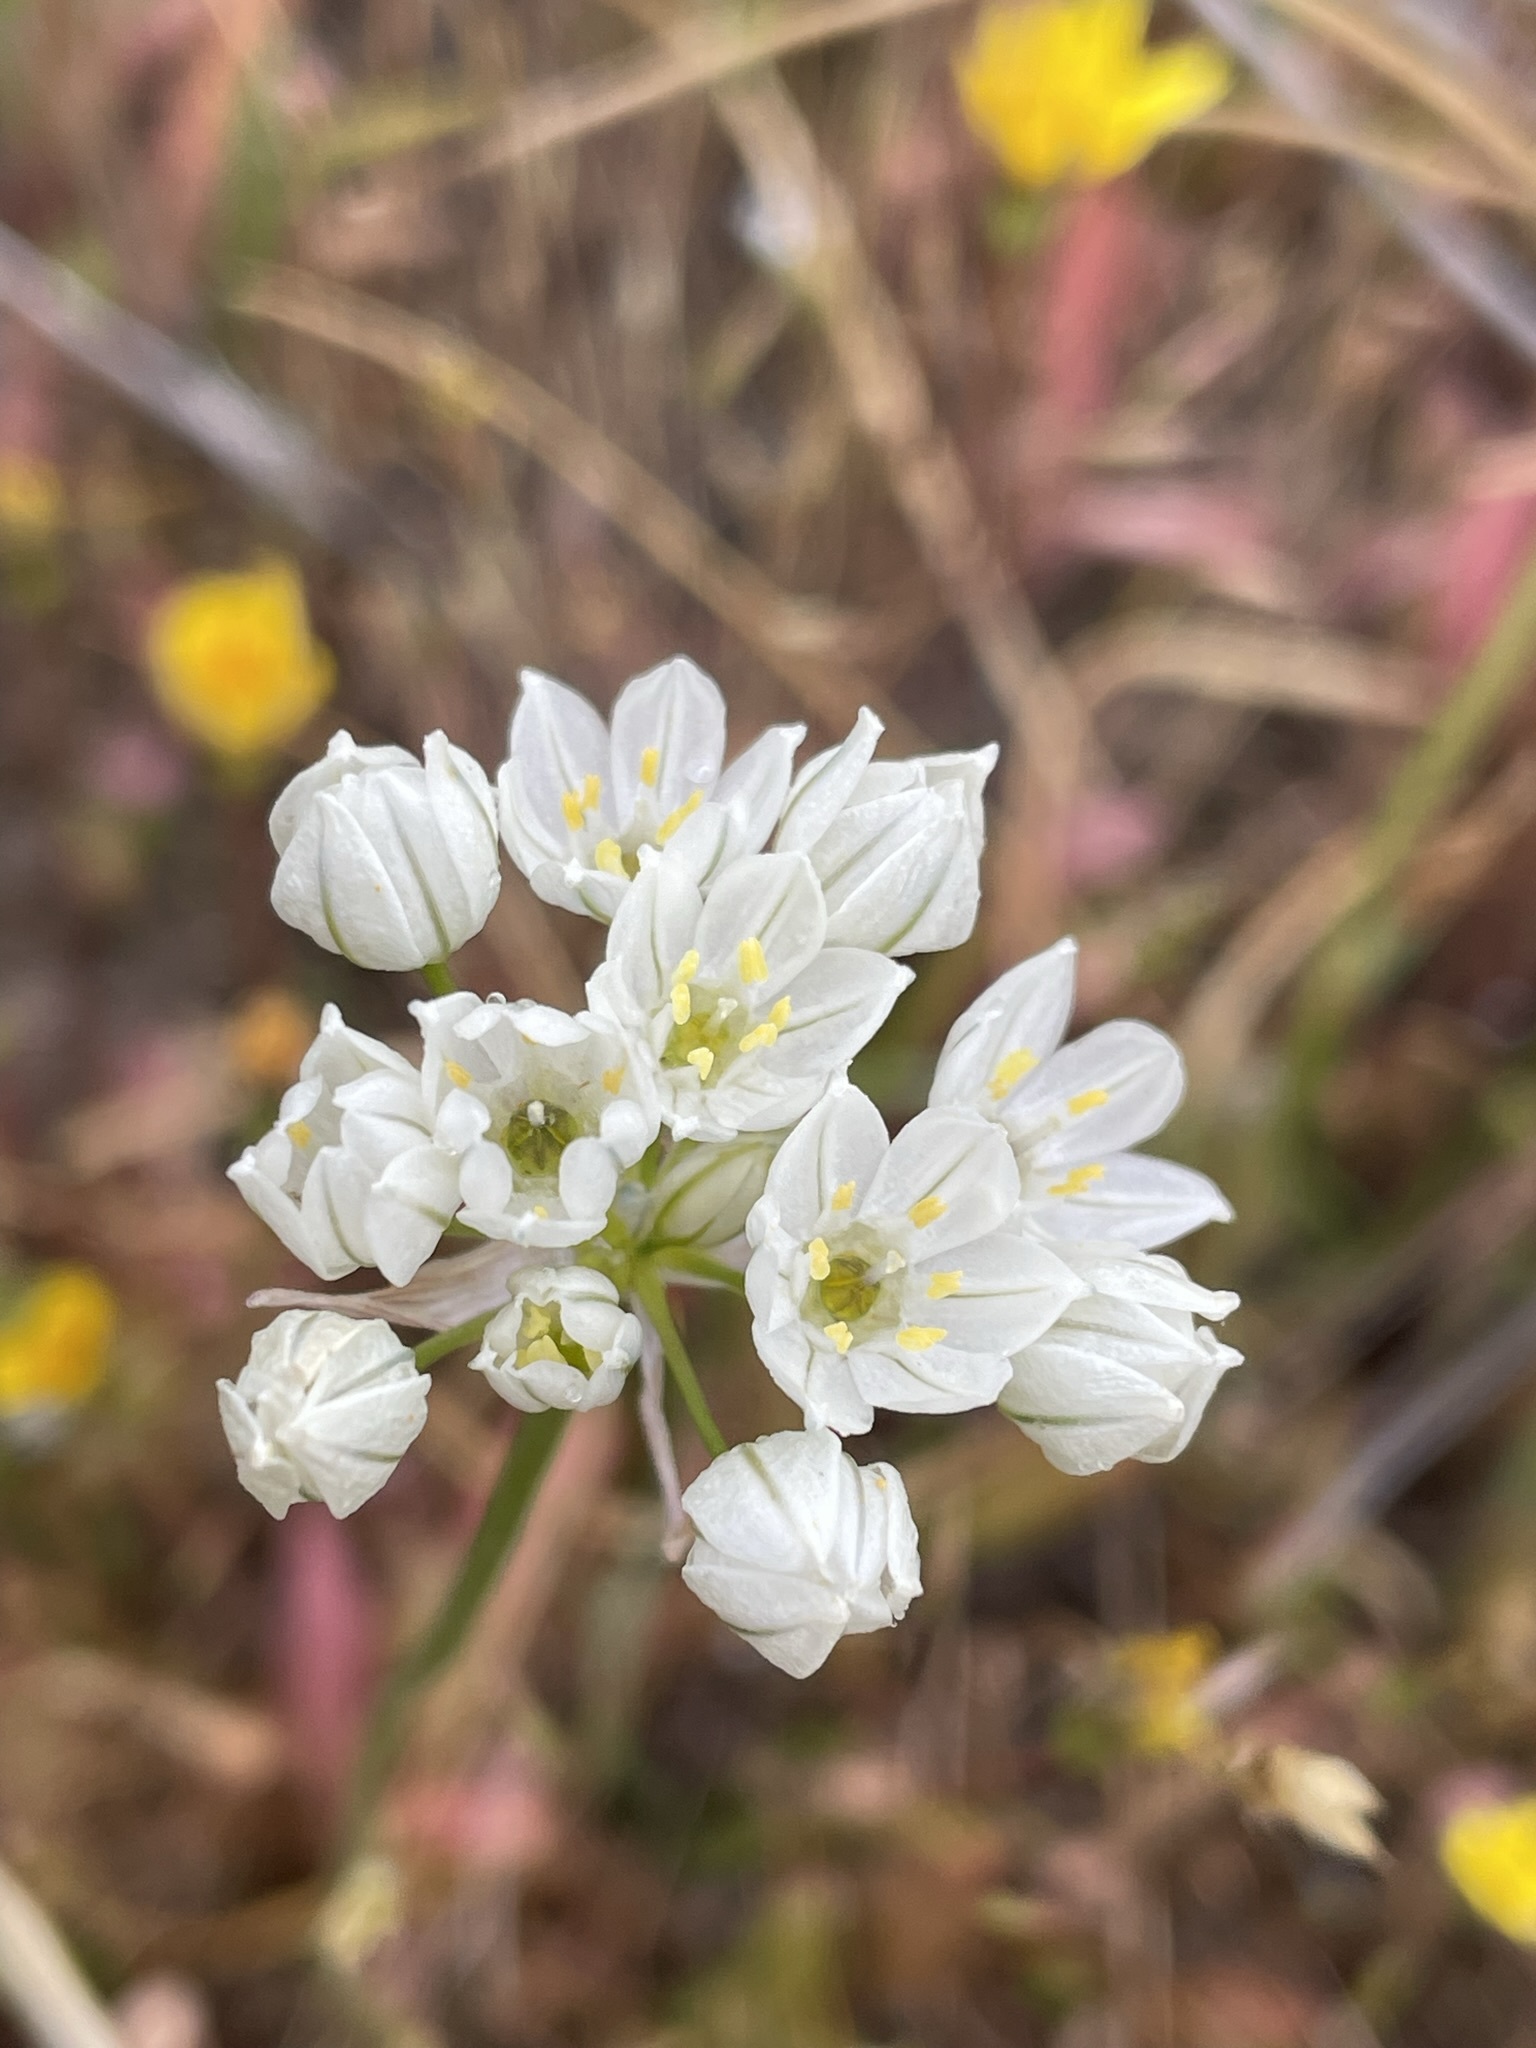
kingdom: Plantae
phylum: Tracheophyta
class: Liliopsida
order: Asparagales
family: Asparagaceae
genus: Triteleia
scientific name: Triteleia hyacinthina
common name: White brodiaea
